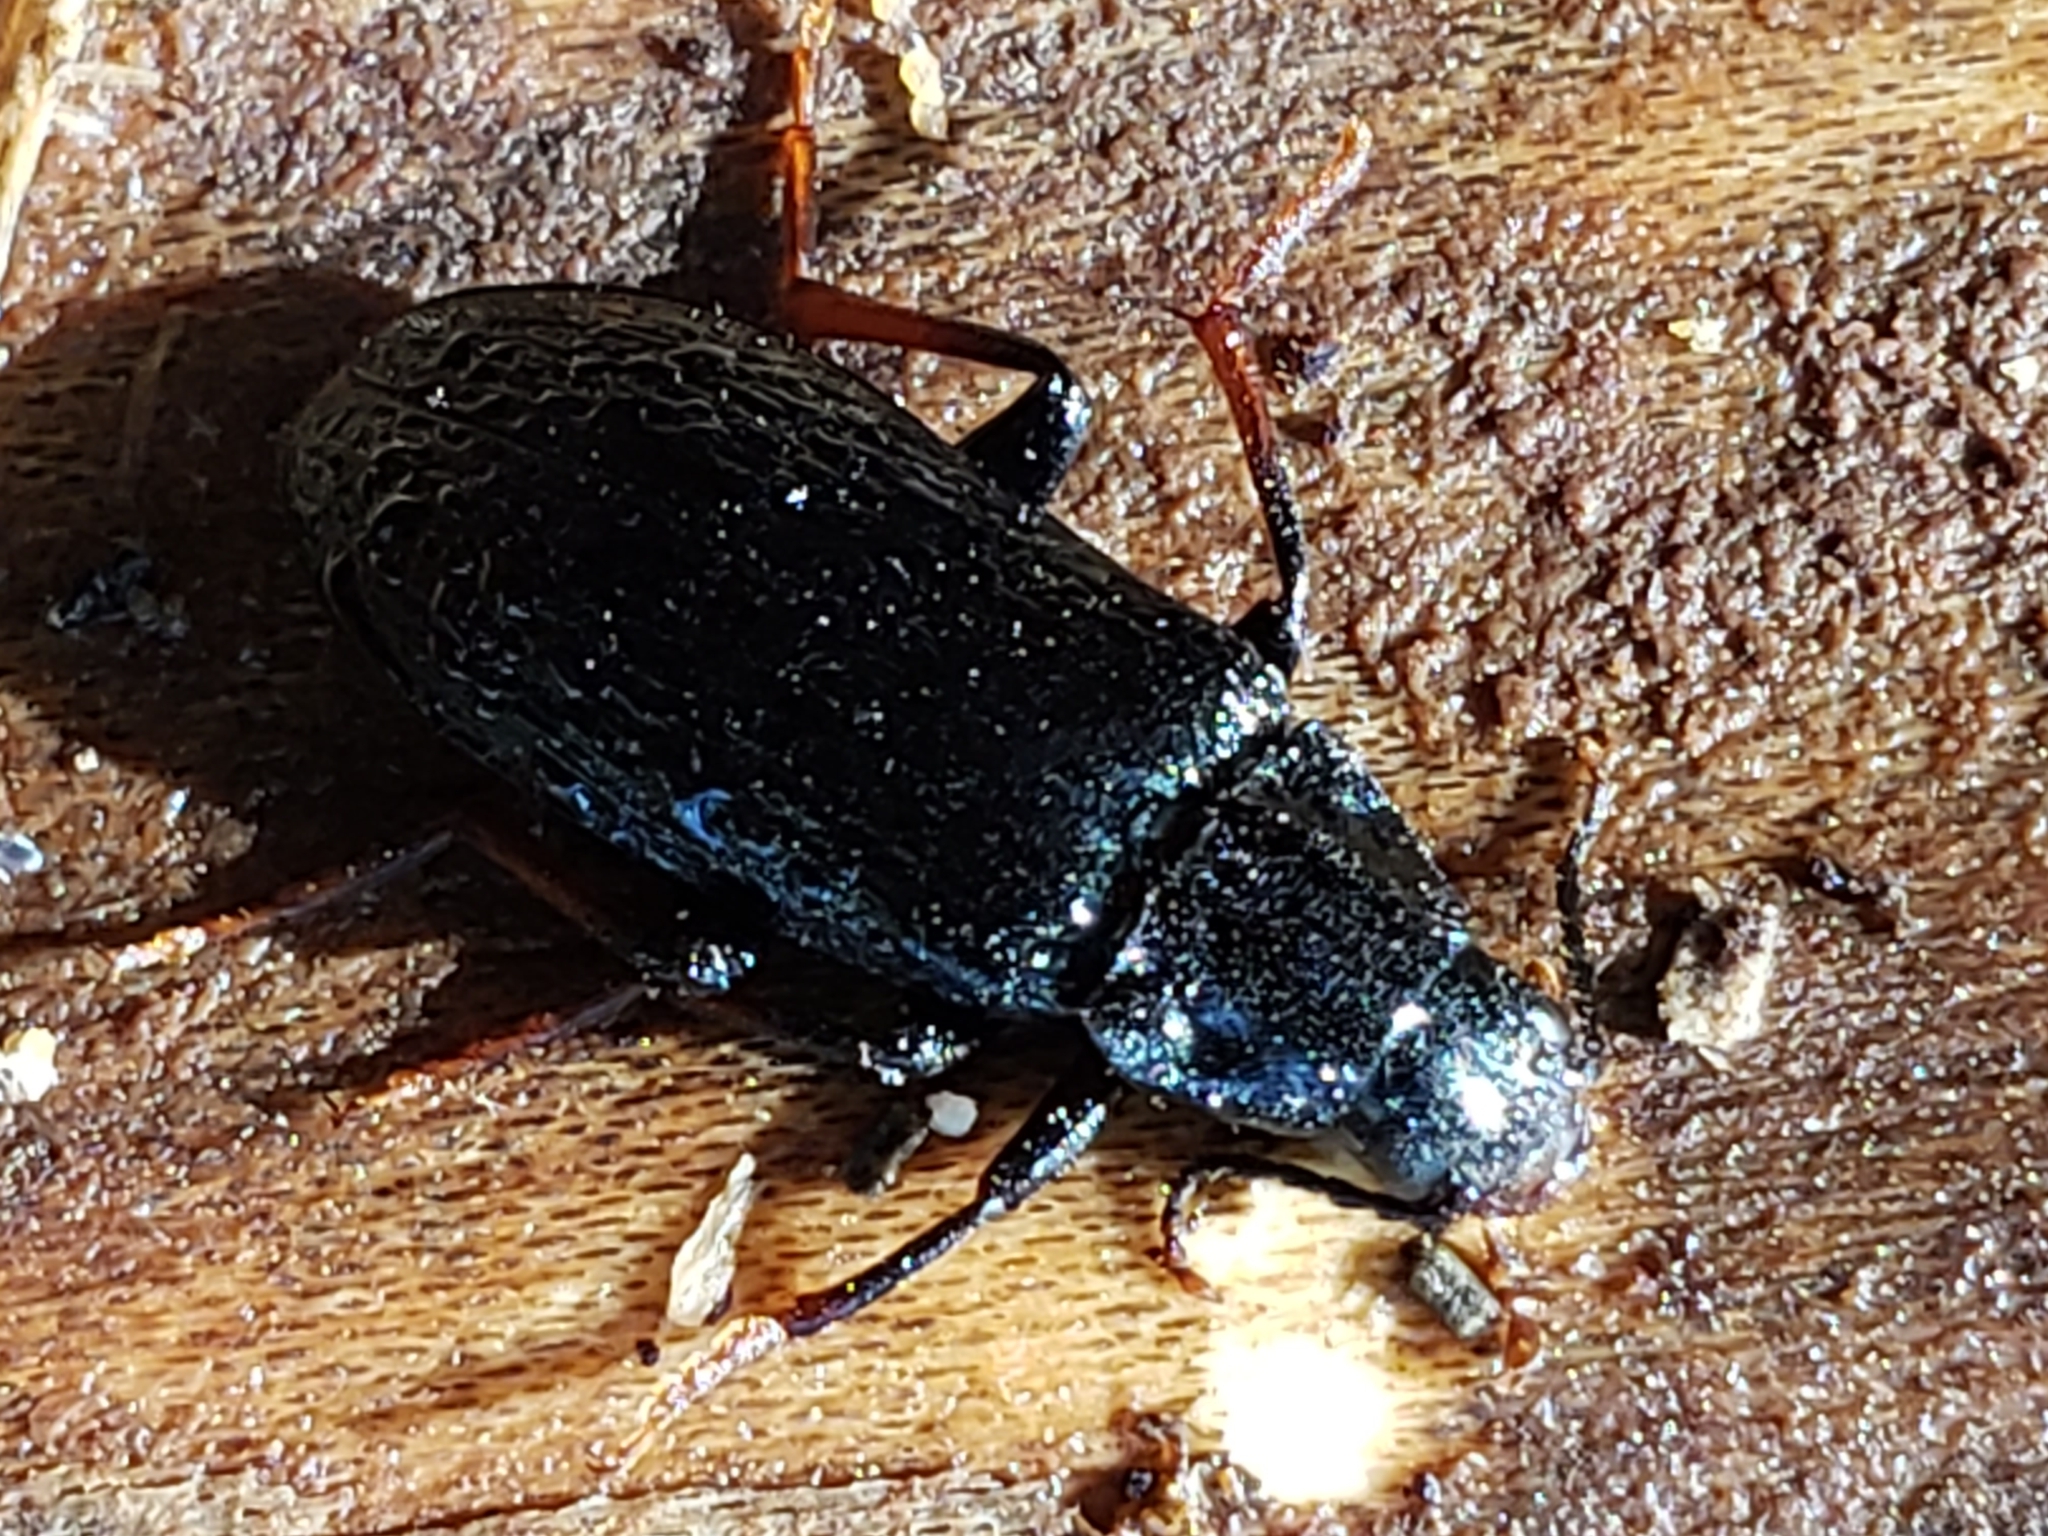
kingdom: Animalia
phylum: Arthropoda
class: Insecta
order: Coleoptera
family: Melandryidae
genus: Melandrya
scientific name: Melandrya striata
